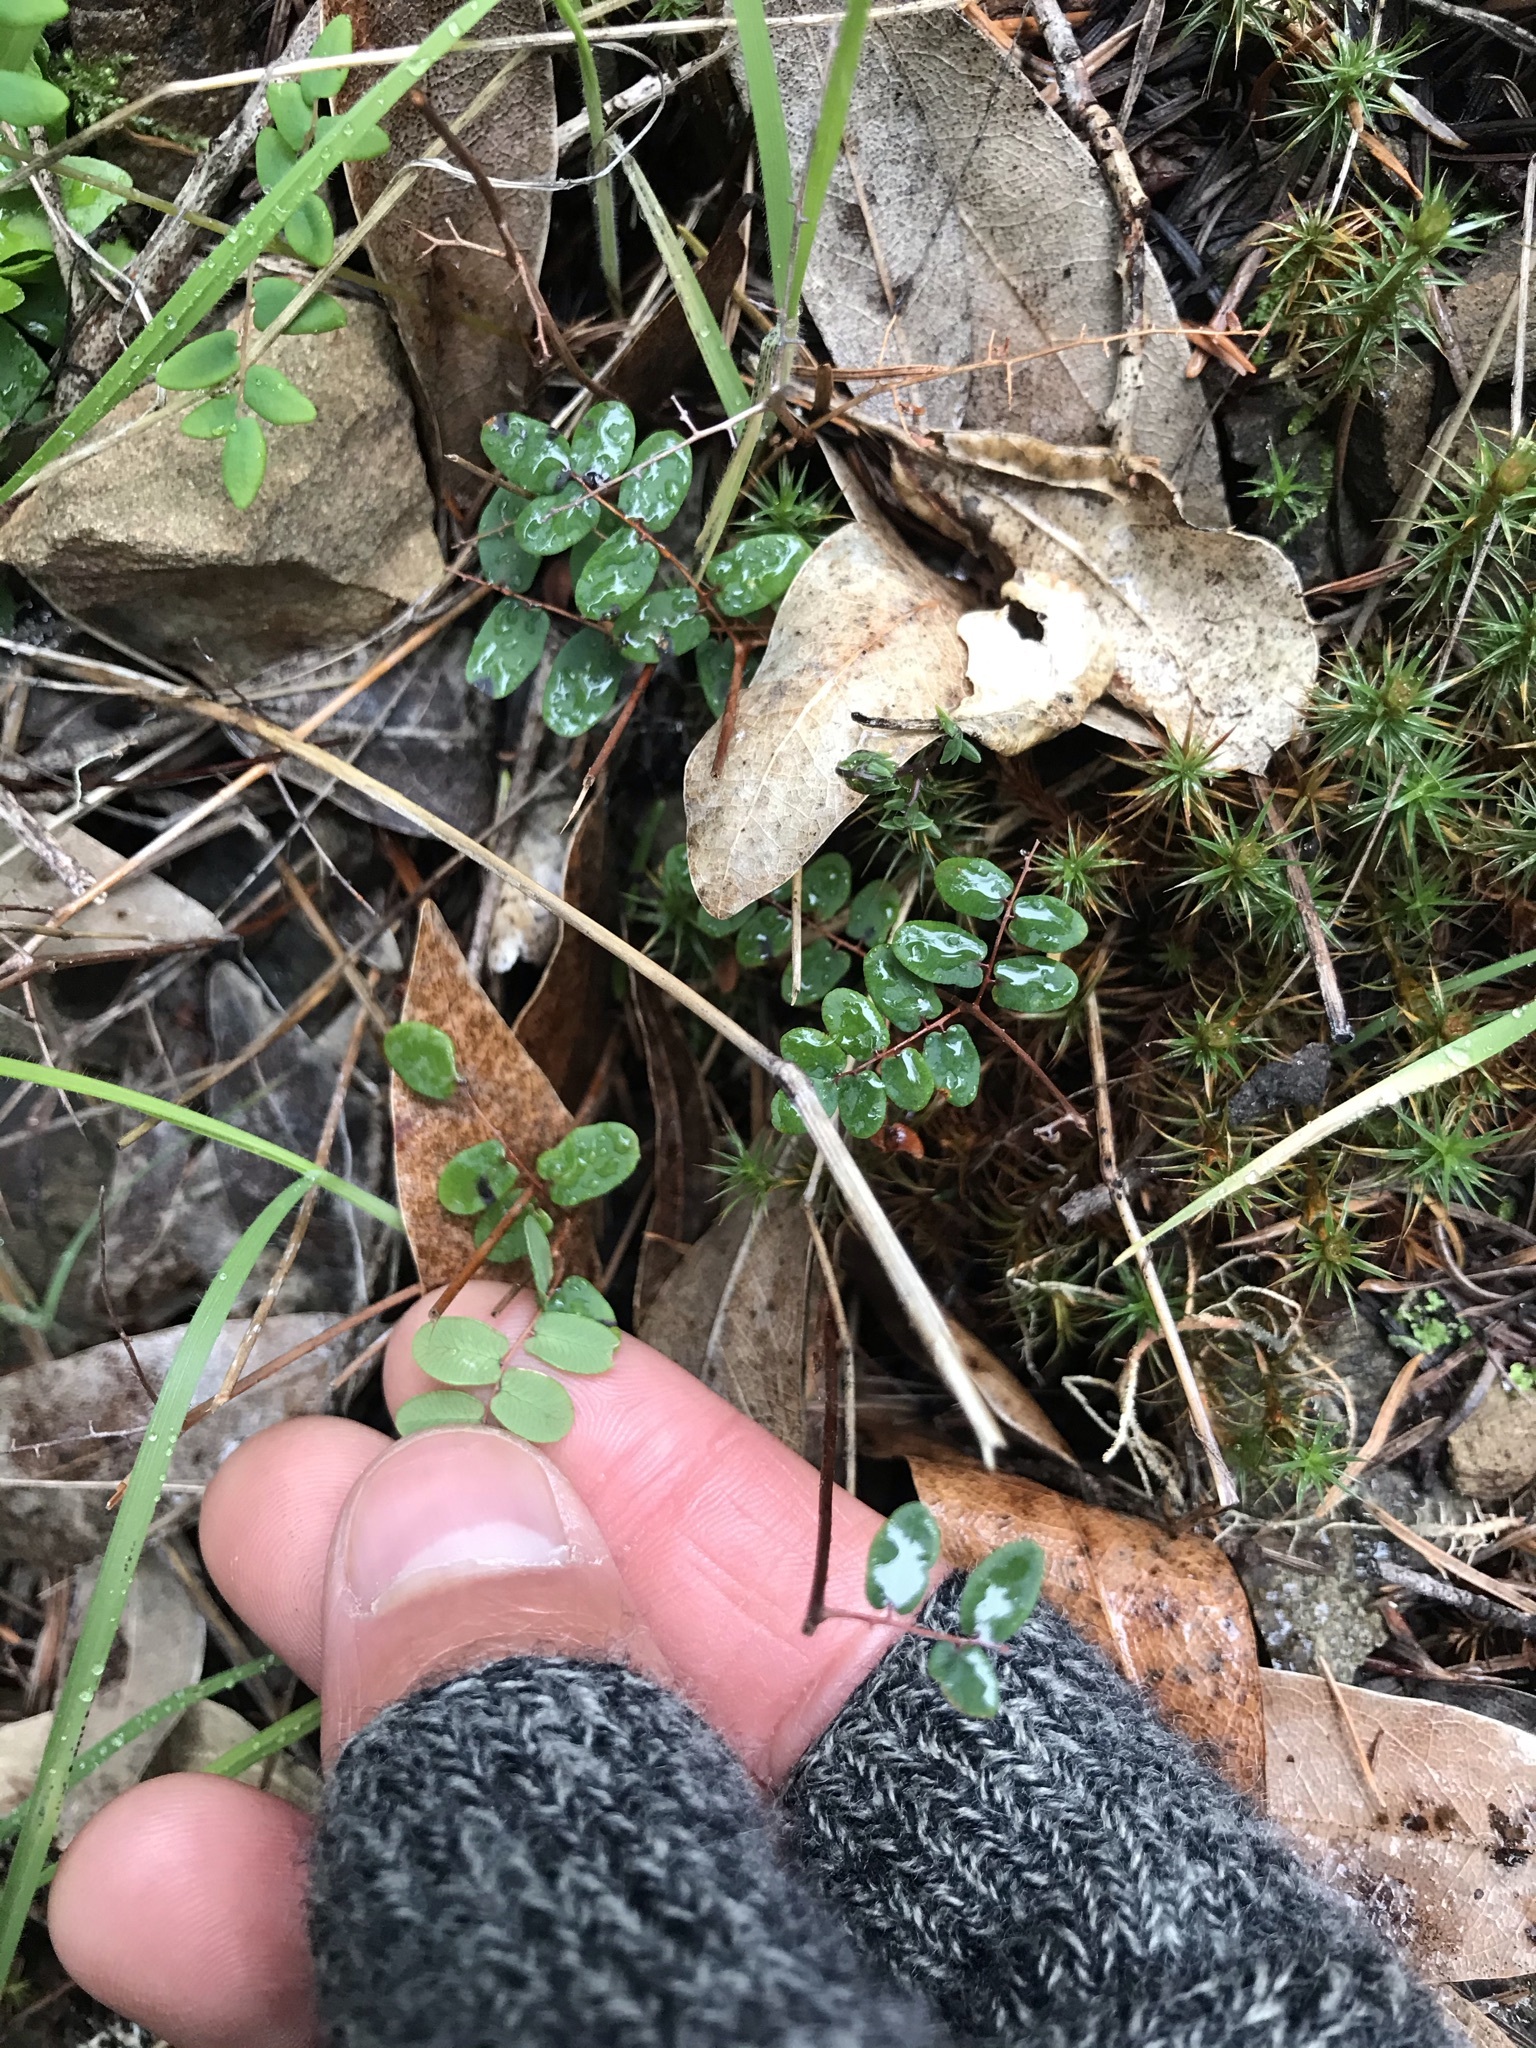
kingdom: Plantae
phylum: Tracheophyta
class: Polypodiopsida
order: Polypodiales
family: Pteridaceae
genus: Pellaea
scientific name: Pellaea andromedifolia
